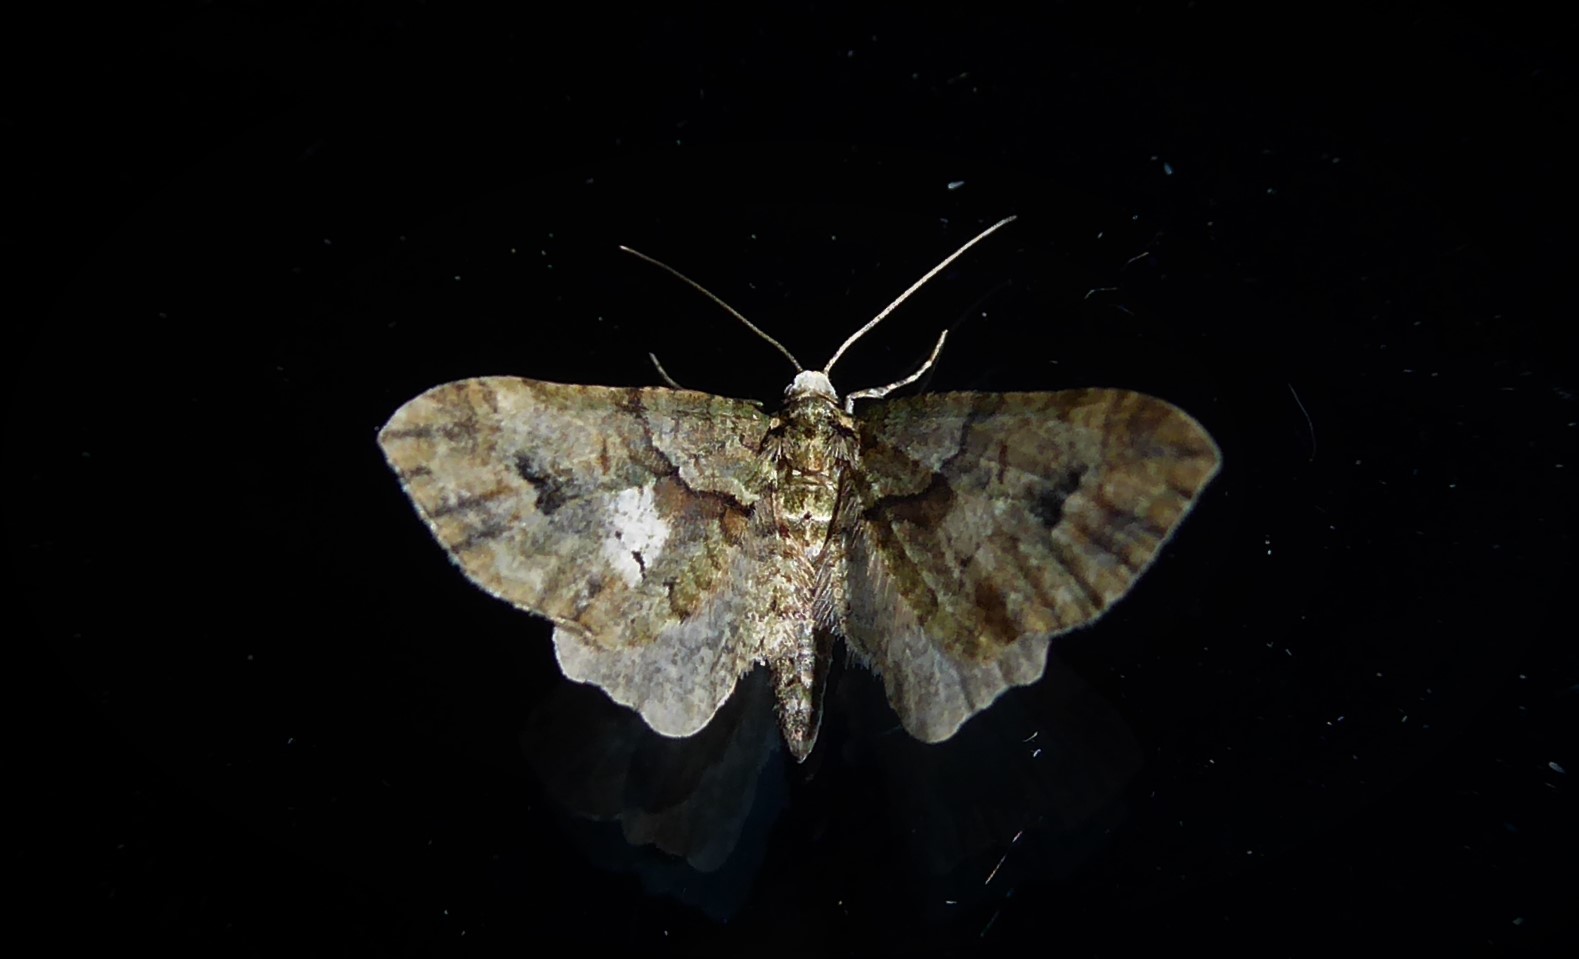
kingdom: Animalia
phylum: Arthropoda
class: Insecta
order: Lepidoptera
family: Geometridae
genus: Idaea
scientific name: Idaea mutanda
